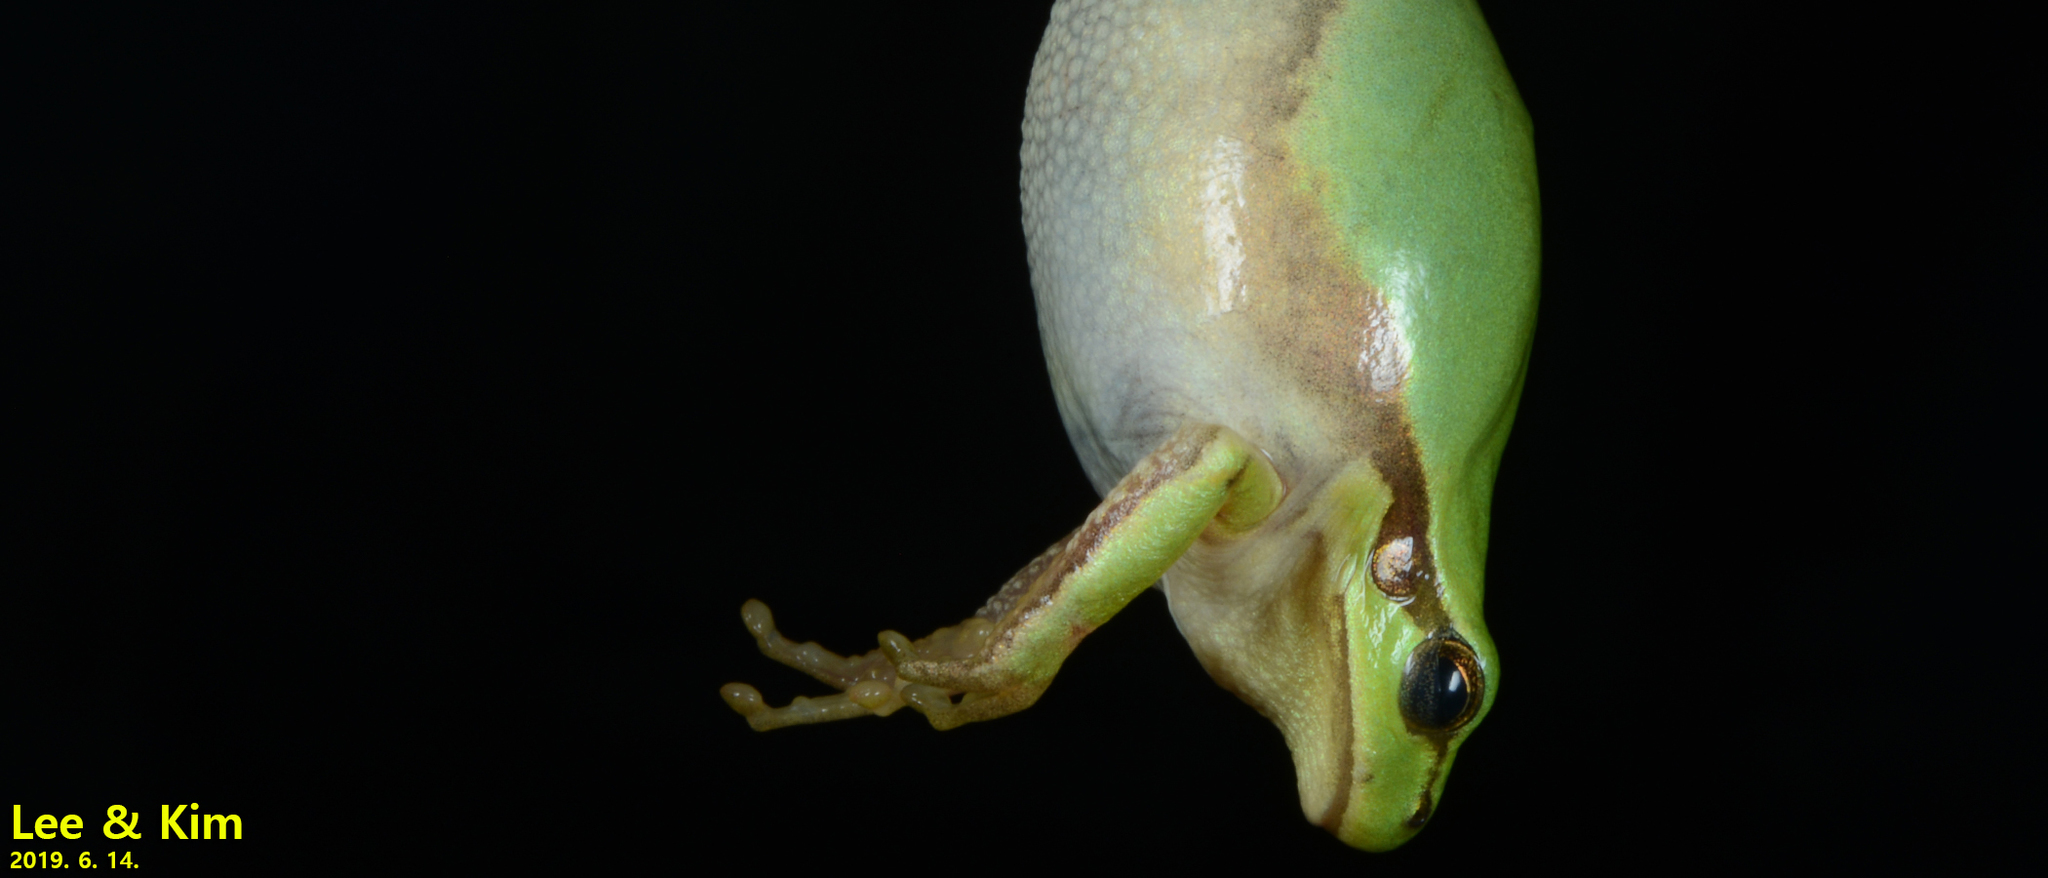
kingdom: Animalia
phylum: Chordata
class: Amphibia
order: Anura
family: Hylidae
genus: Dryophytes
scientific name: Dryophytes immaculatus
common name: North china treefrog
